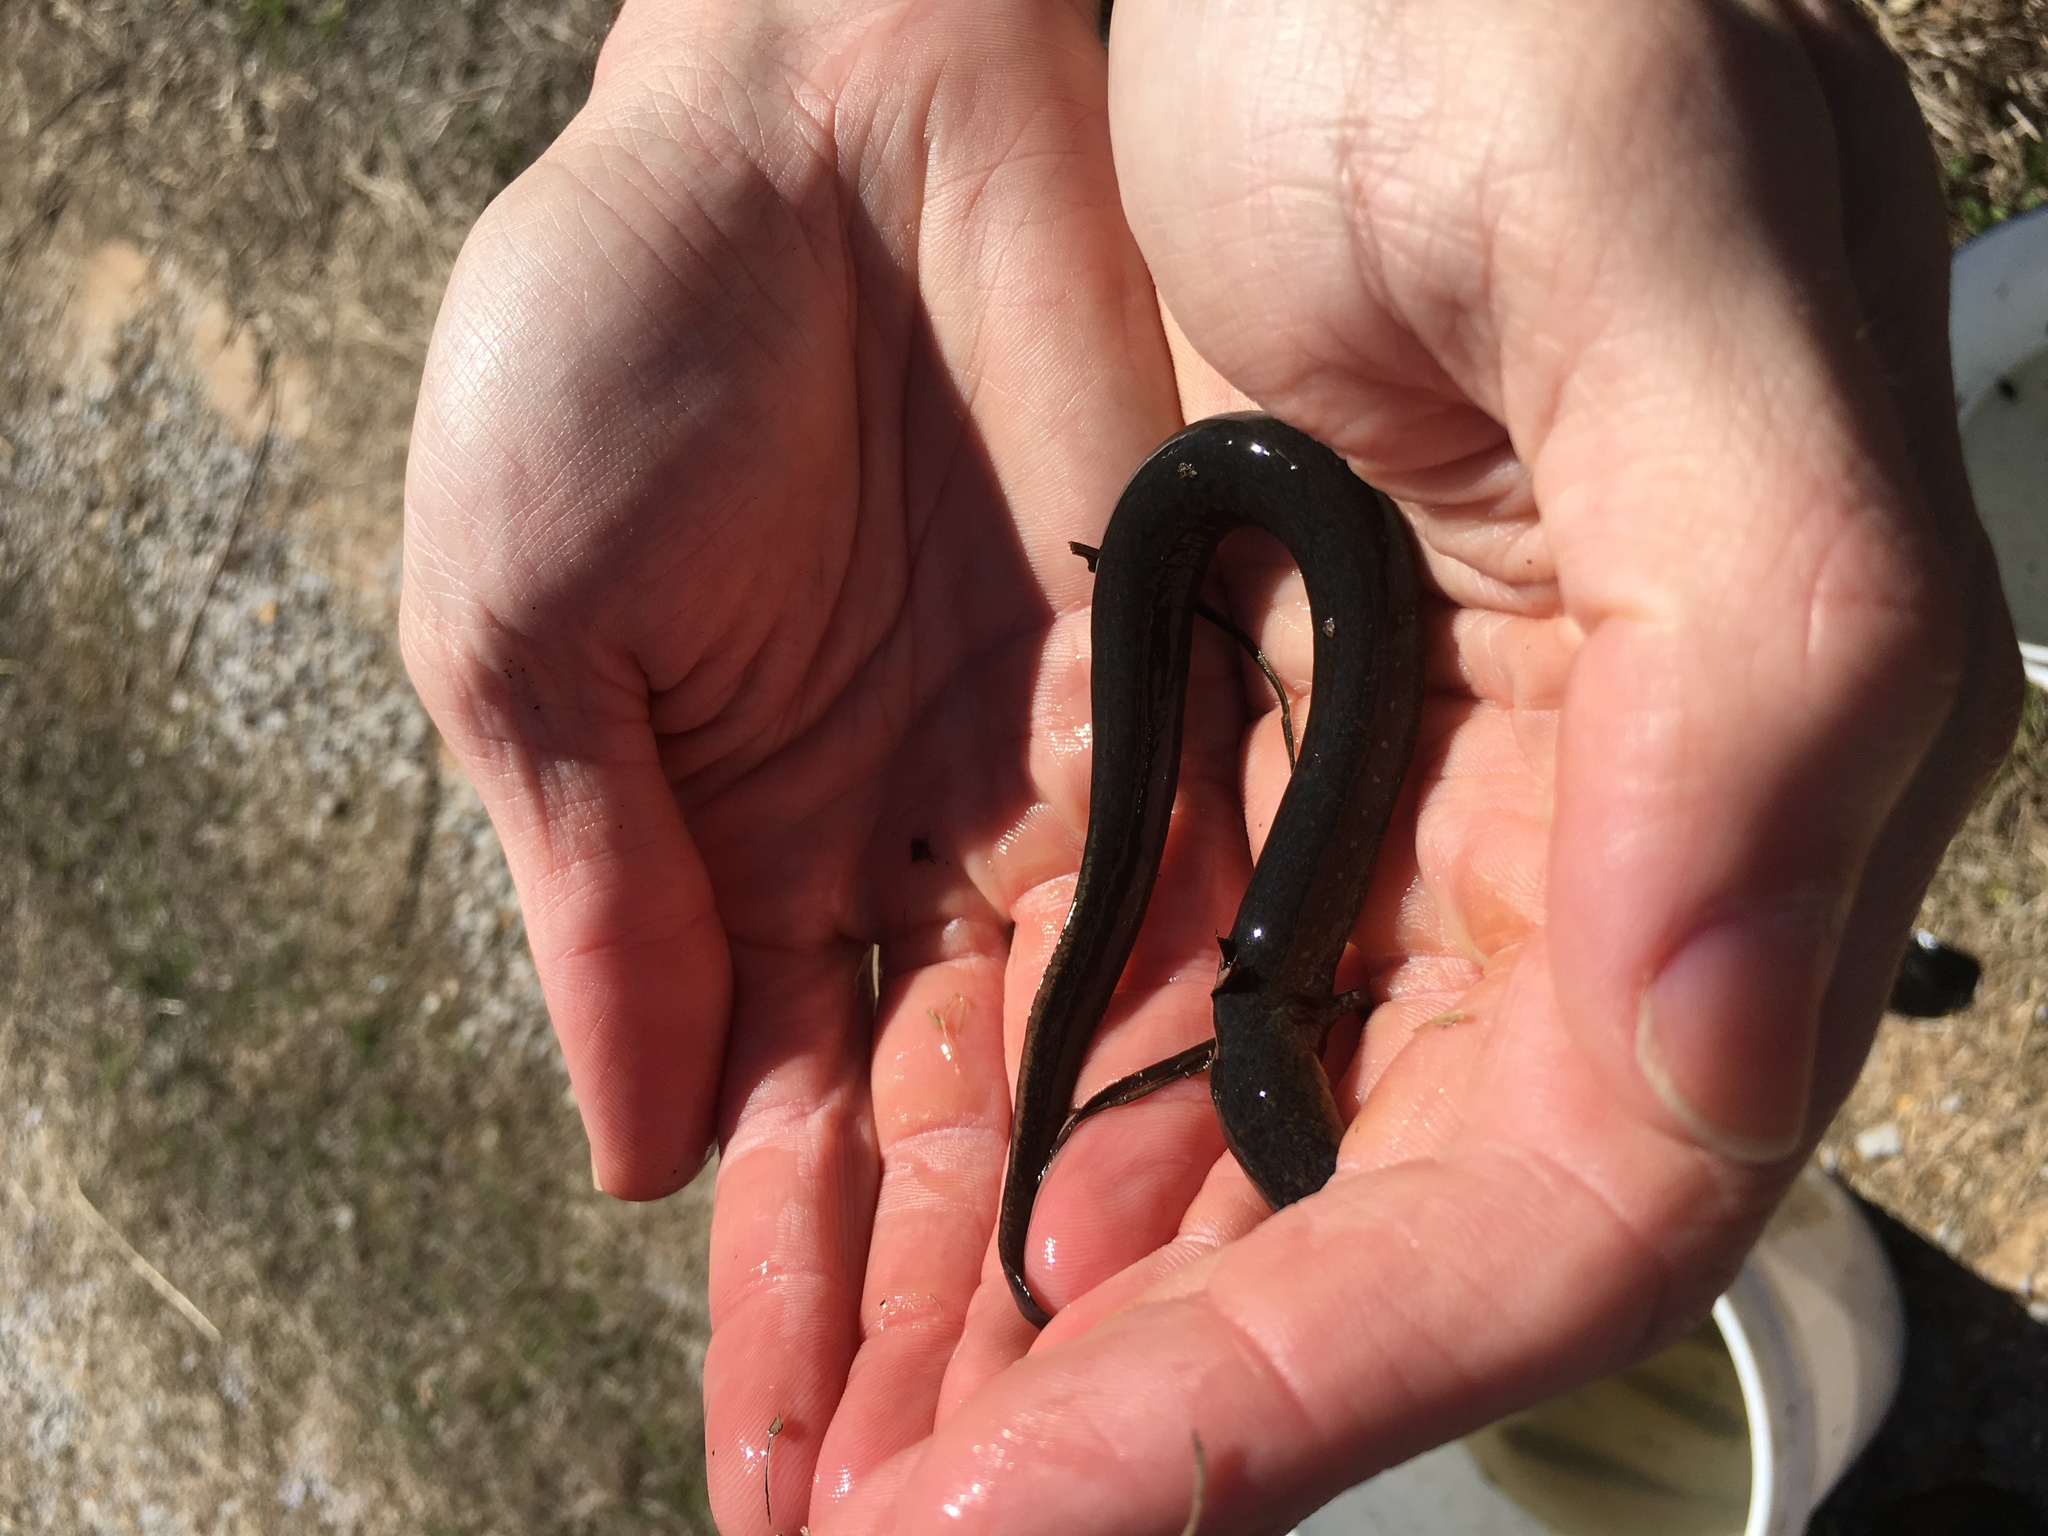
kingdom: Animalia
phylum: Chordata
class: Amphibia
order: Caudata
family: Sirenidae
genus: Siren
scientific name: Siren intermedia
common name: Lesser siren
